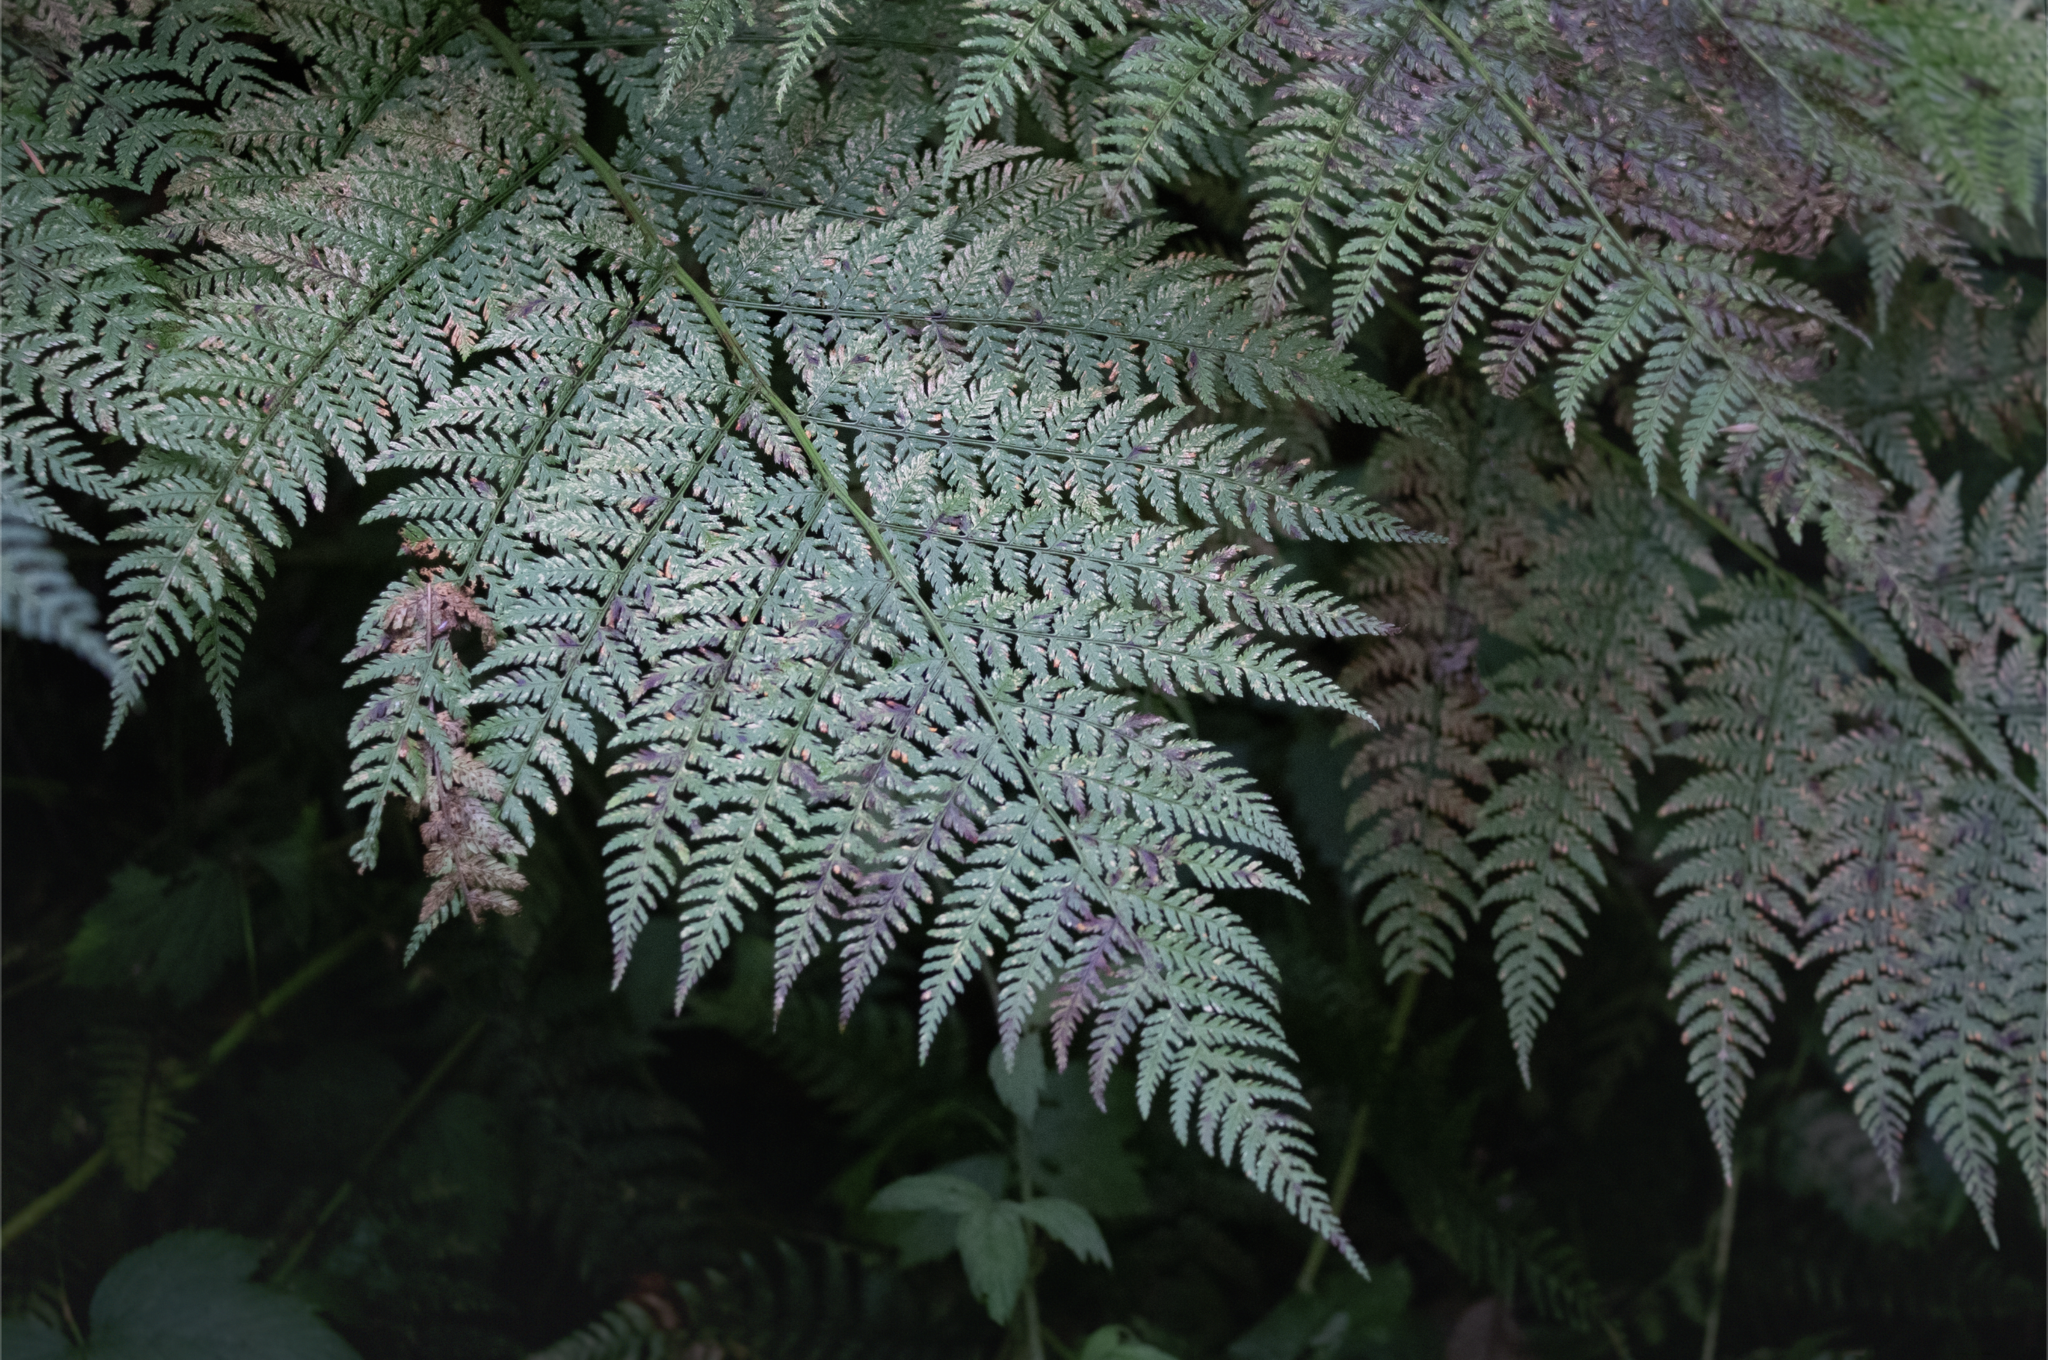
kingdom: Plantae
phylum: Tracheophyta
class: Polypodiopsida
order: Polypodiales
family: Dryopteridaceae
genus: Dryopteris
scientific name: Dryopteris expansa
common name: Northern buckler fern
